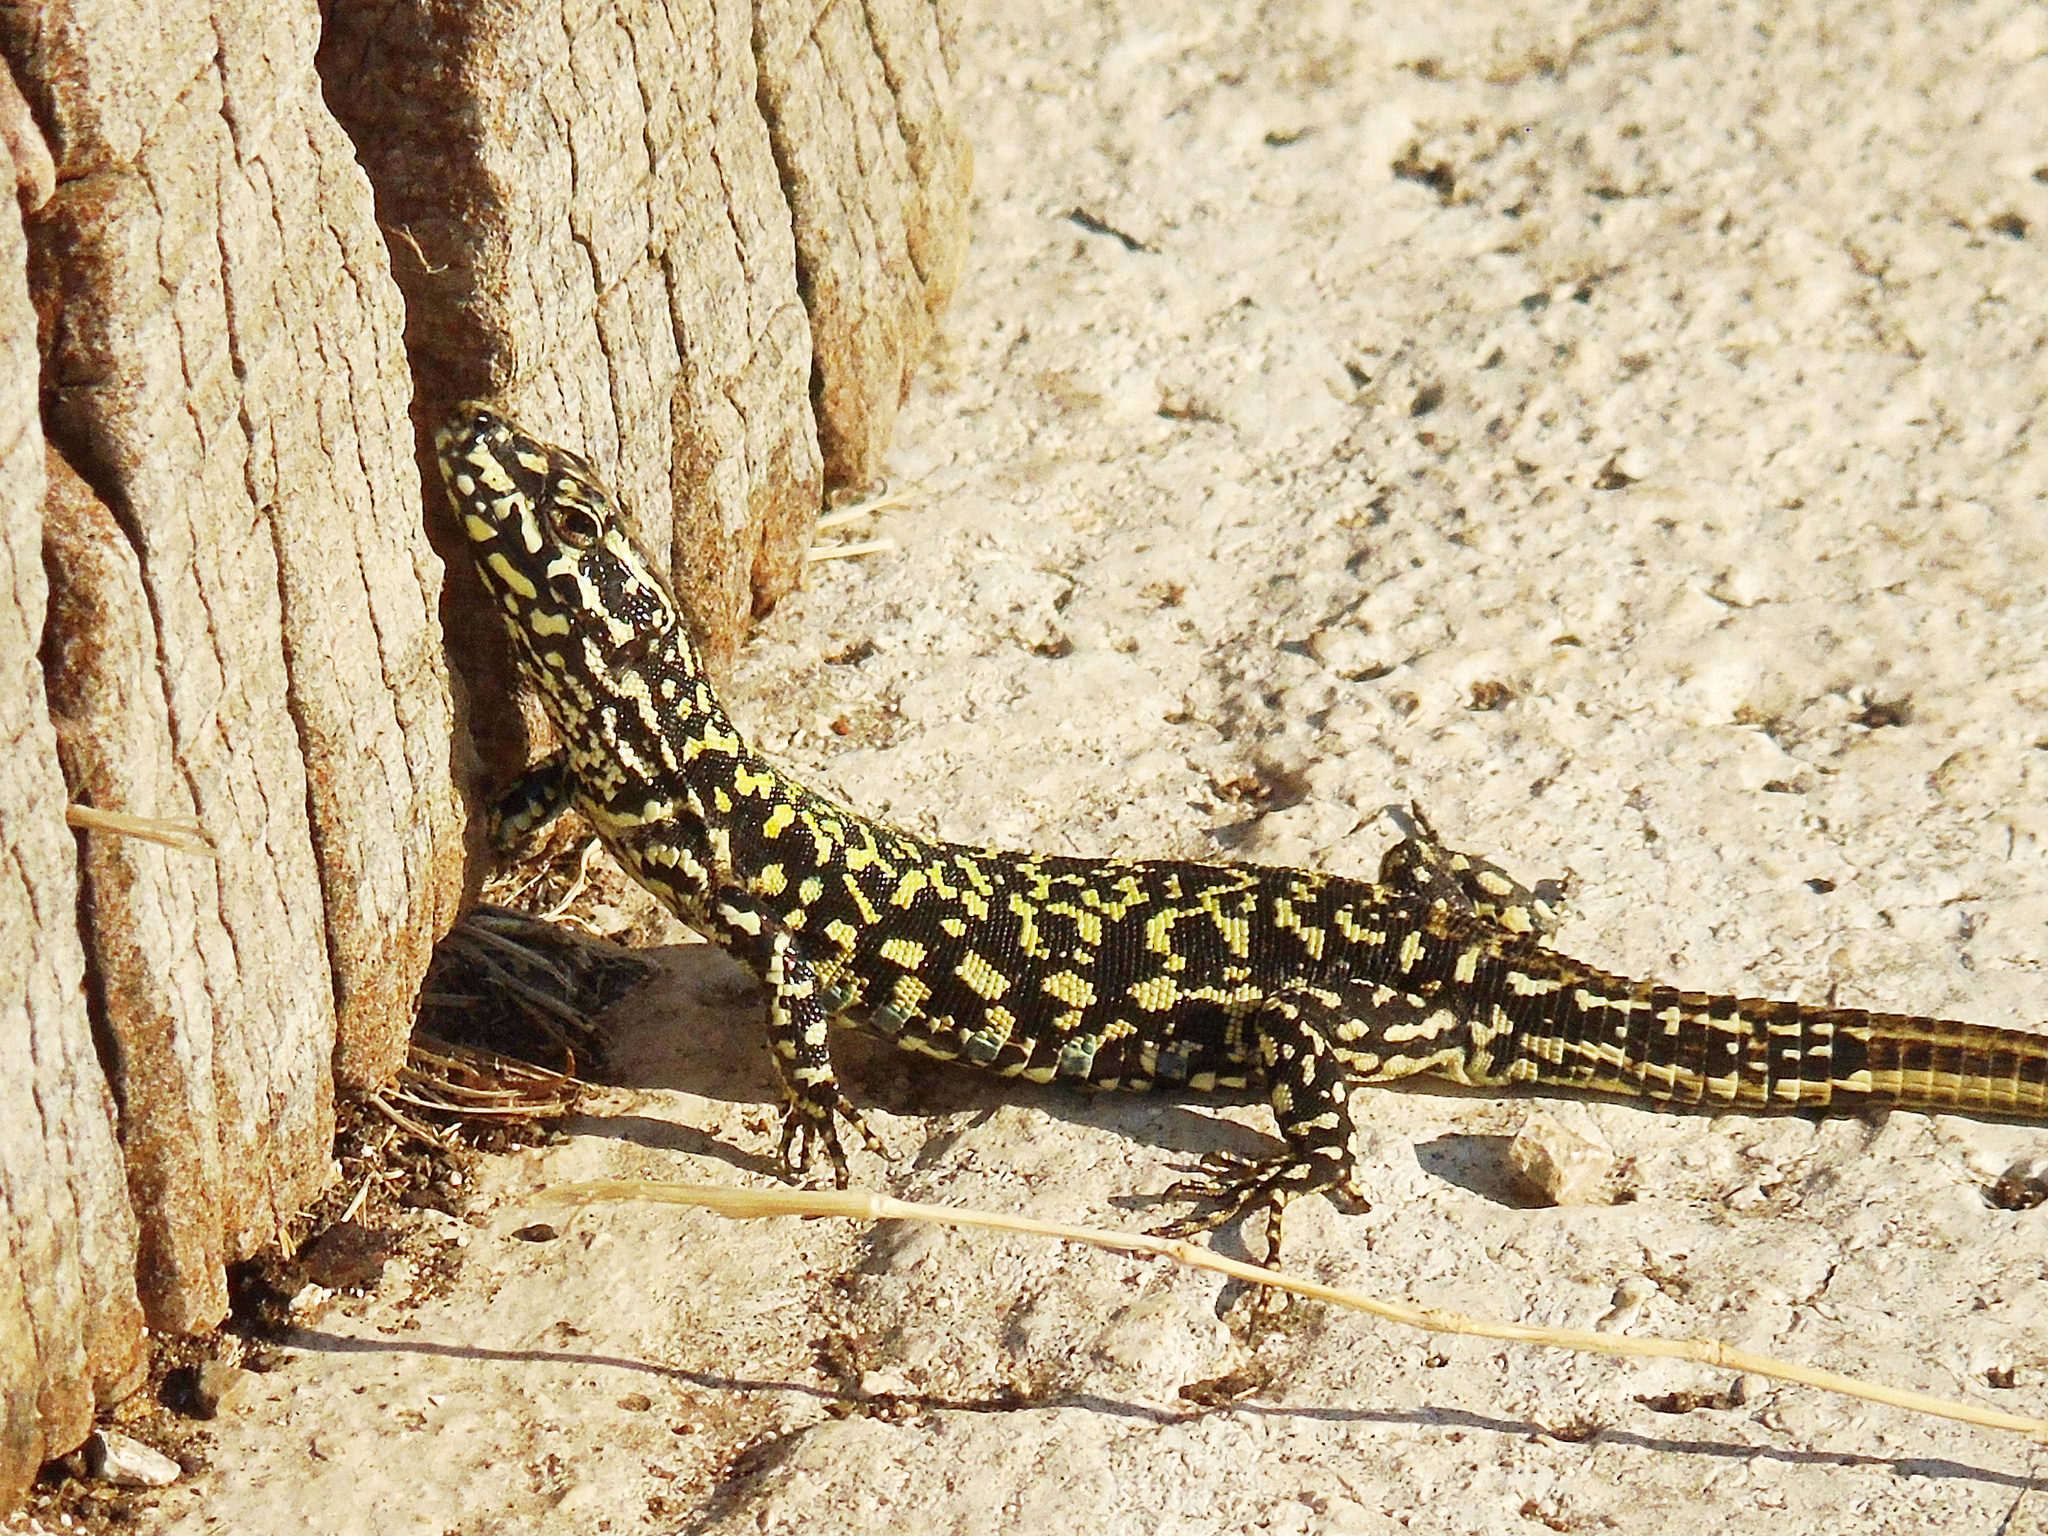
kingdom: Animalia
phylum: Chordata
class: Squamata
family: Lacertidae
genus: Podarcis
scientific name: Podarcis muralis
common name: Common wall lizard
